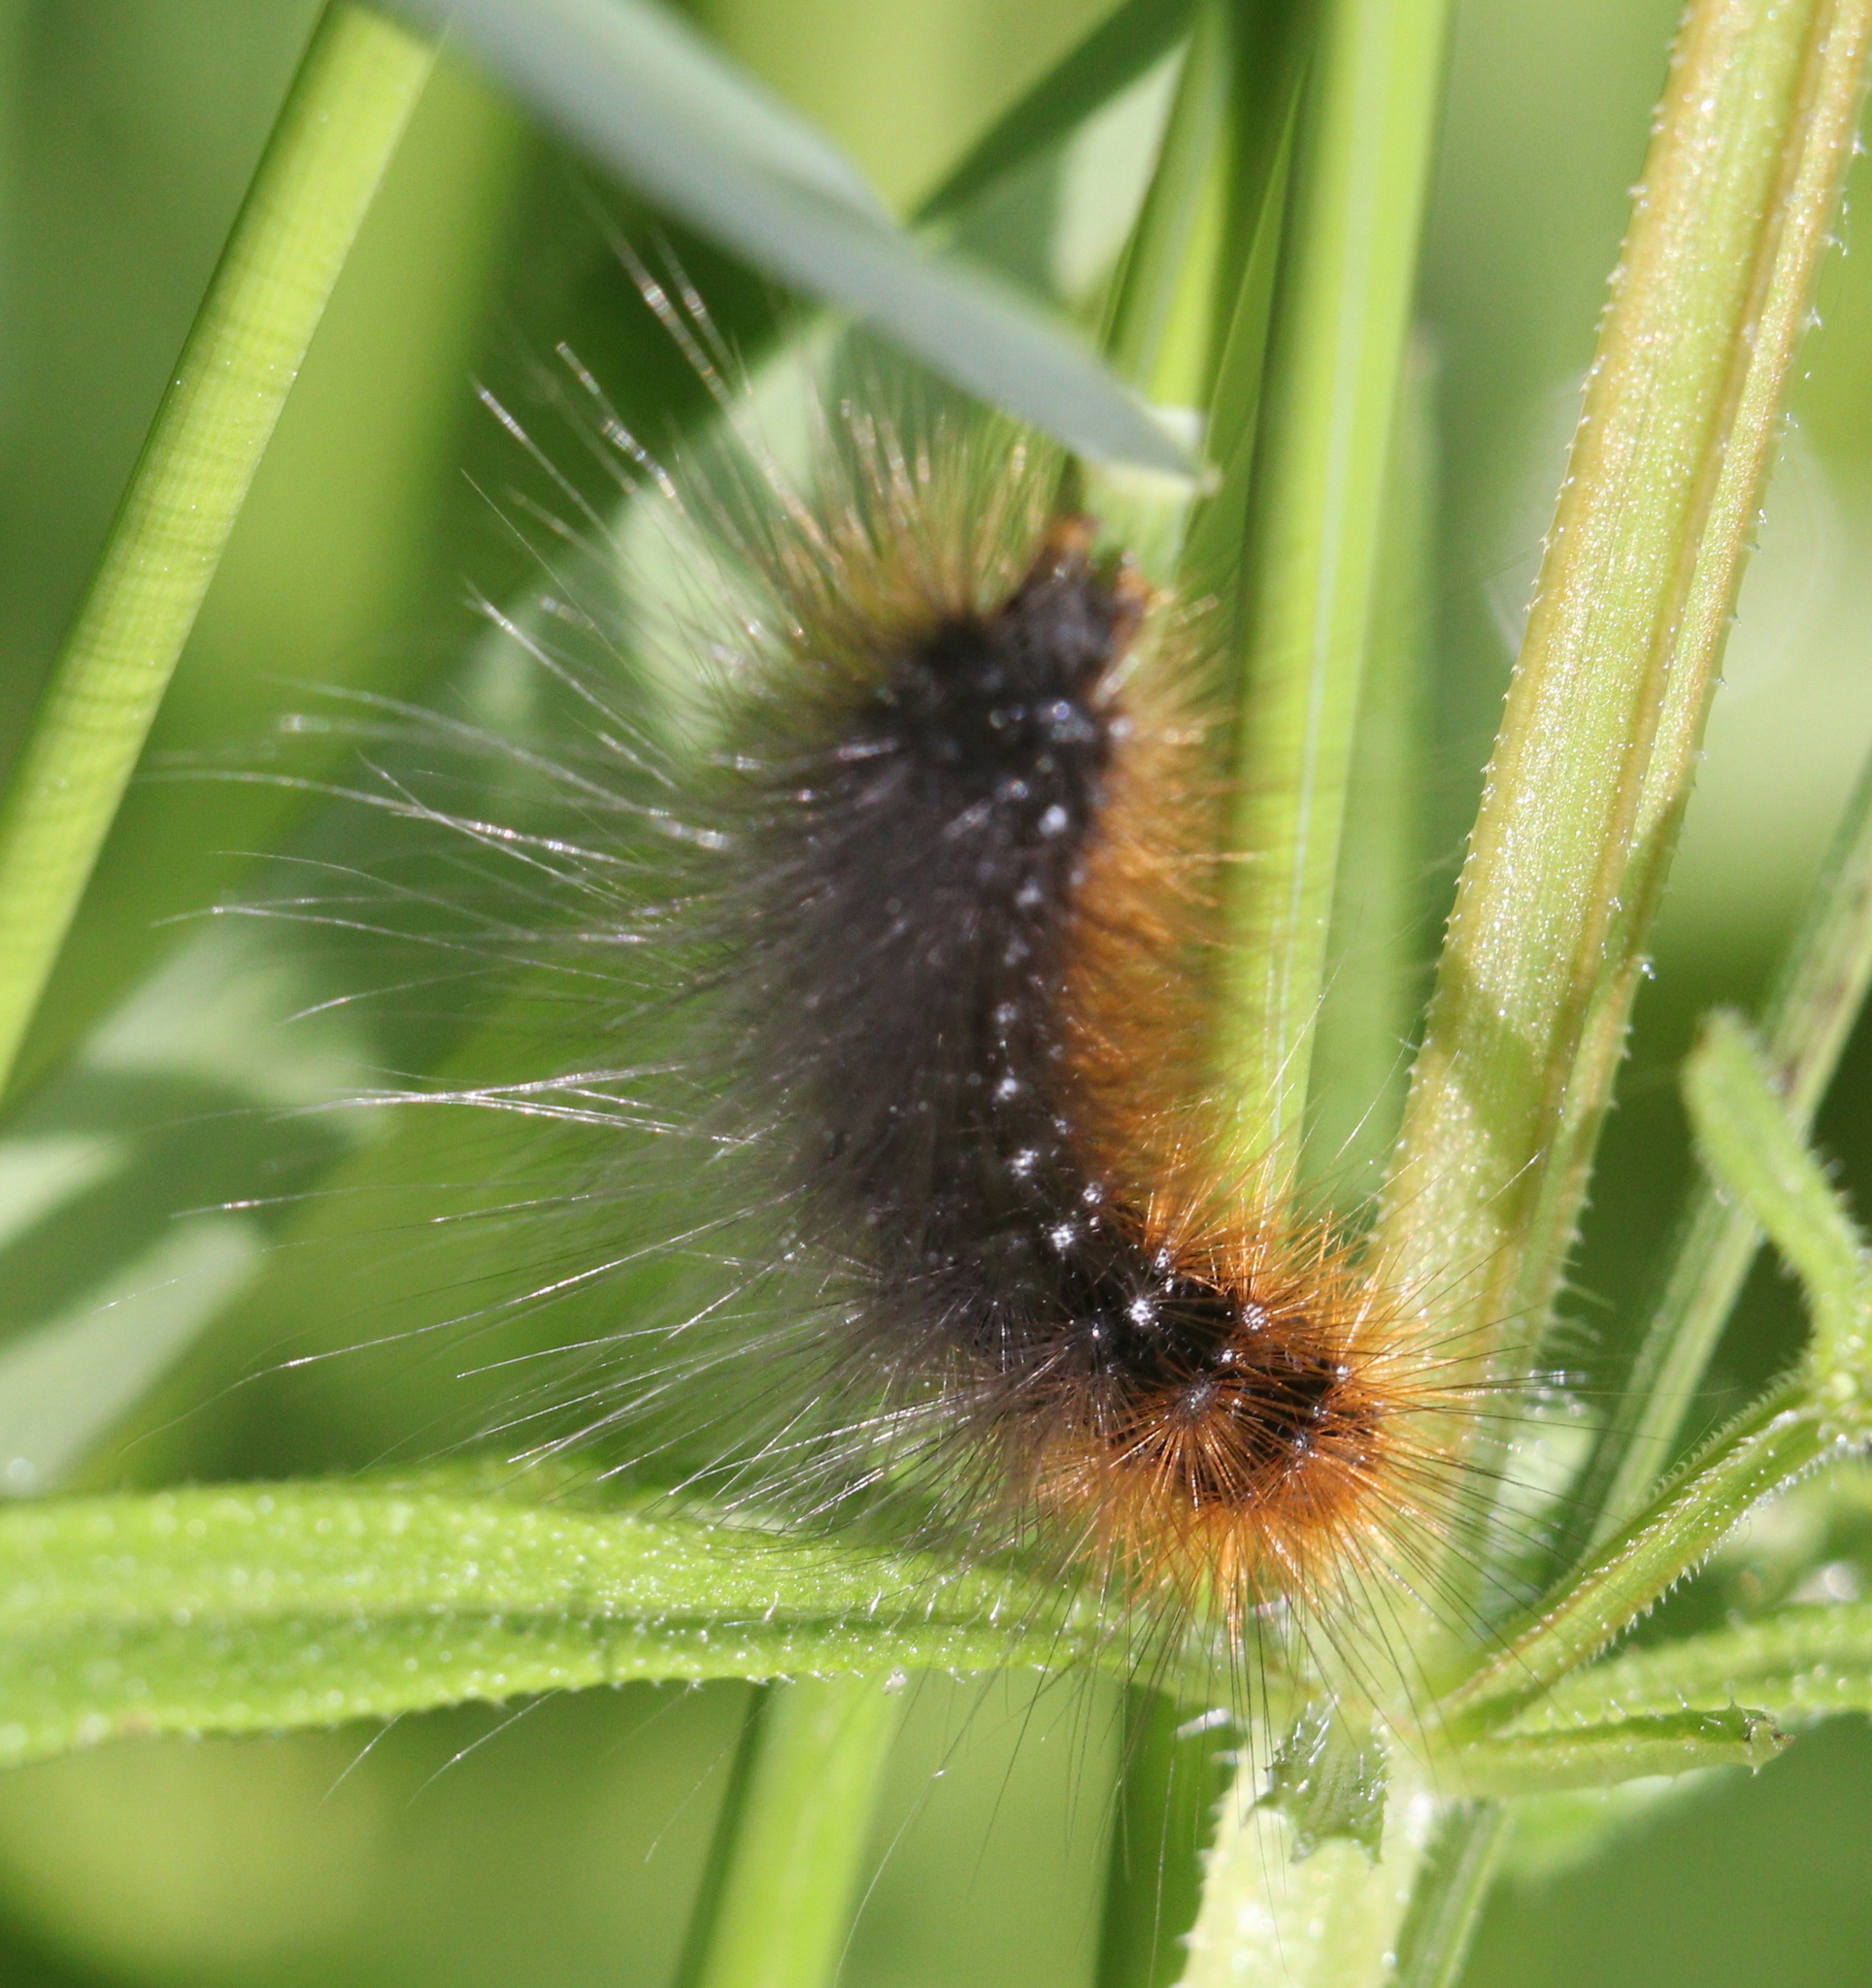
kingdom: Animalia
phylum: Arthropoda
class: Insecta
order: Lepidoptera
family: Erebidae
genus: Arctia
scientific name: Arctia caja
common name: Garden tiger
